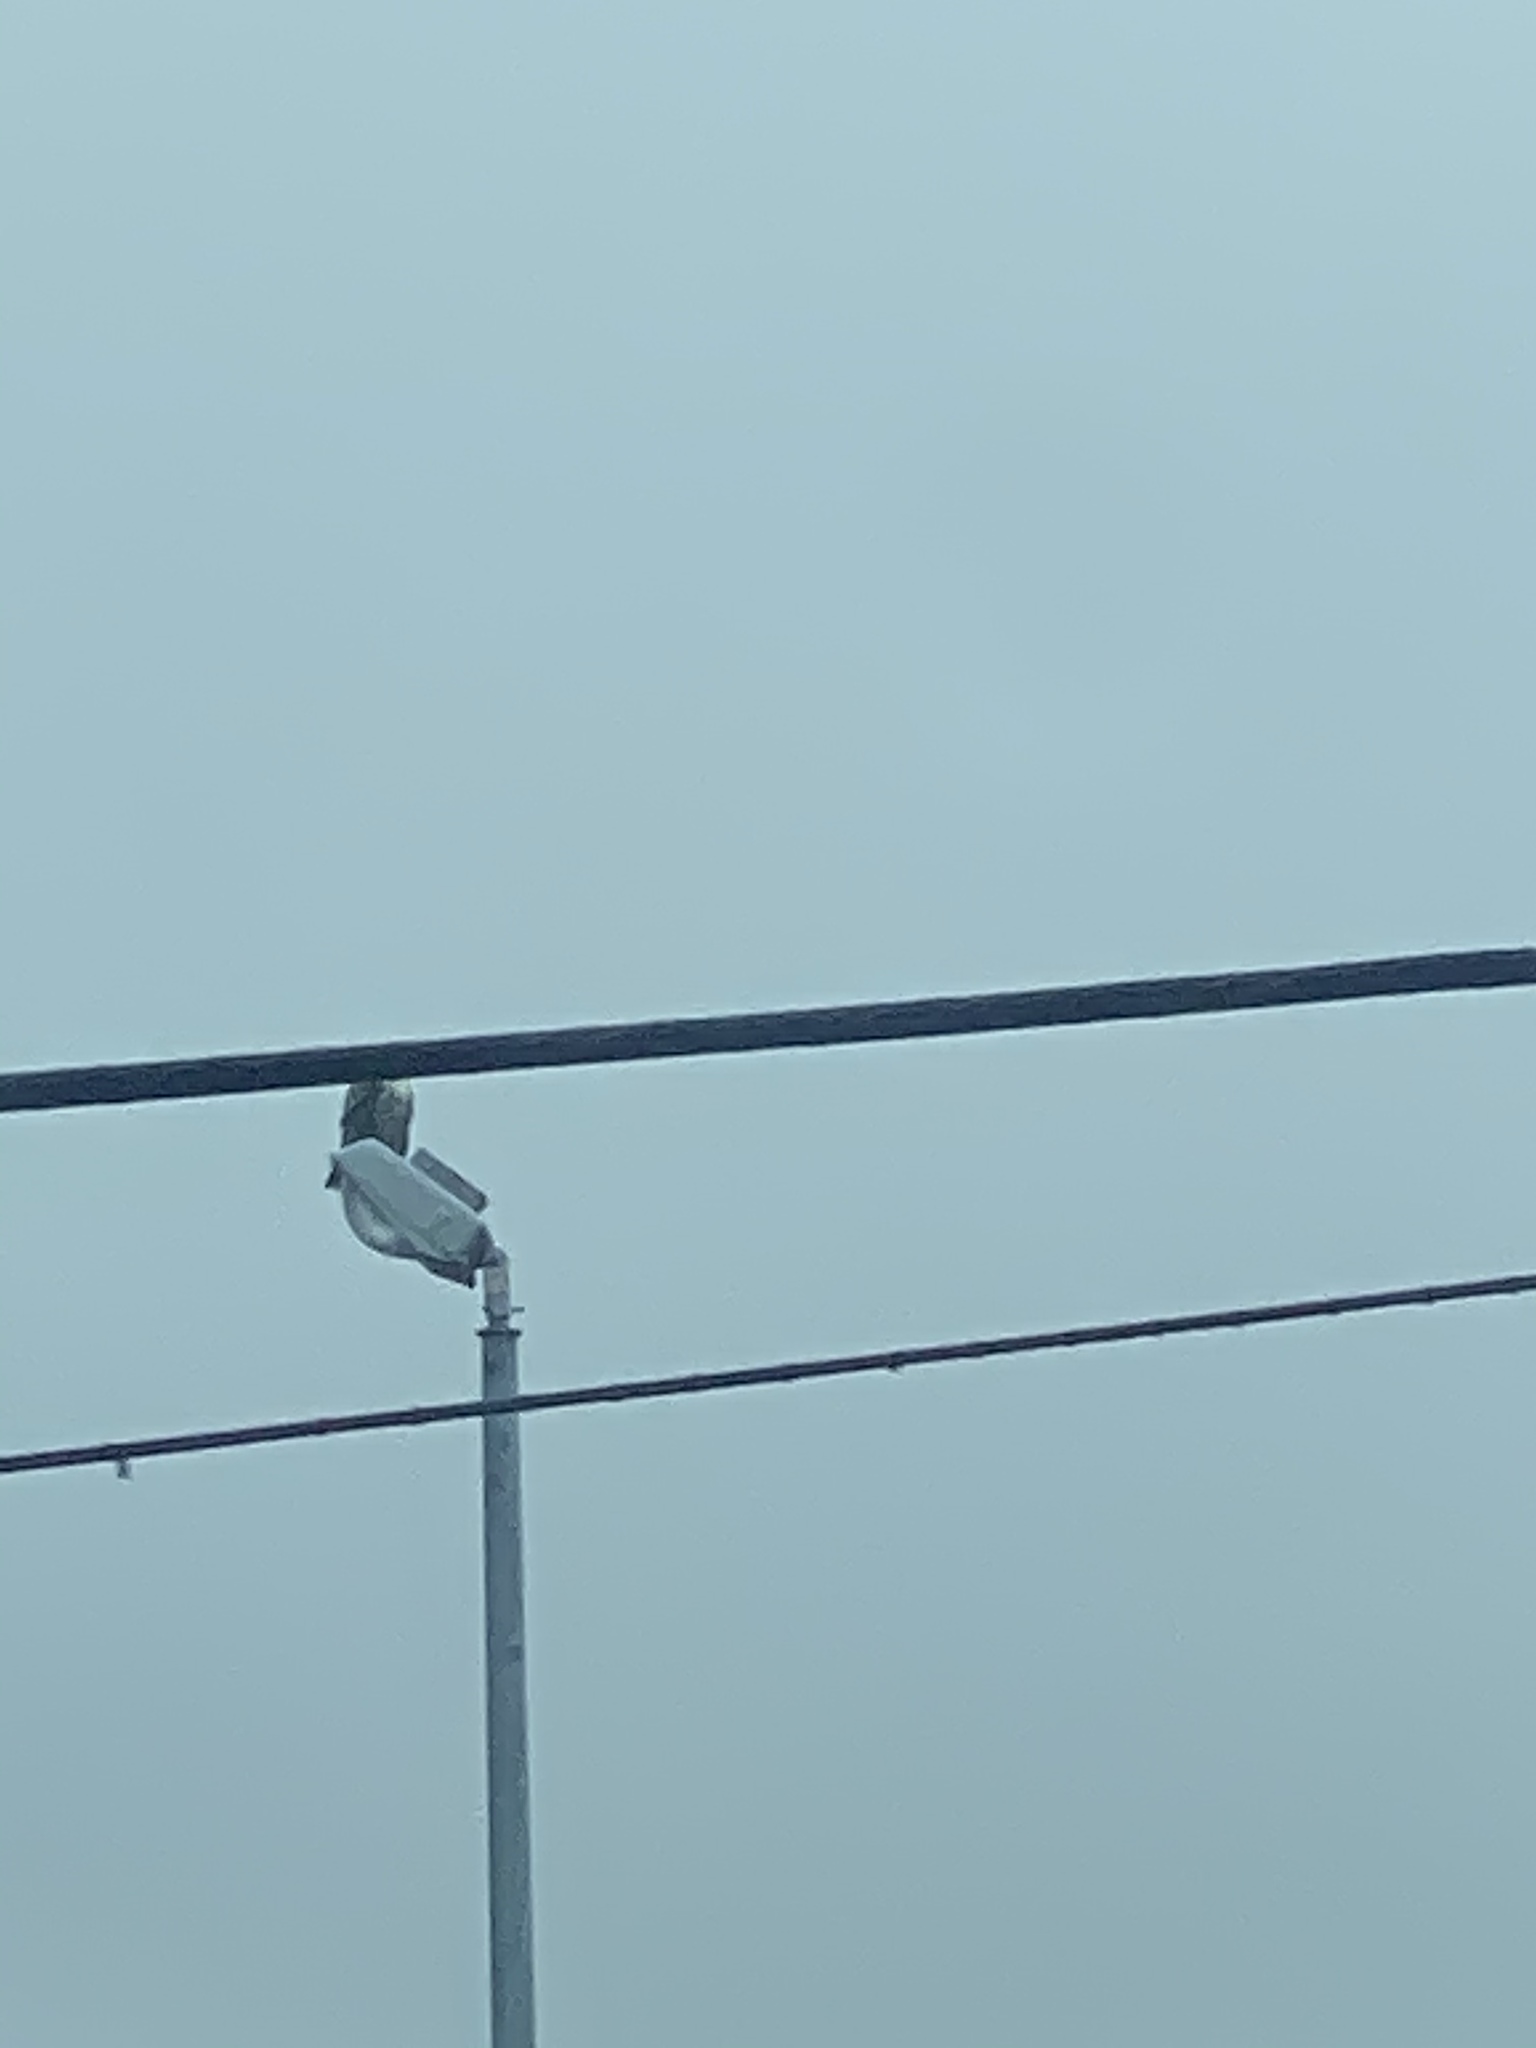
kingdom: Animalia
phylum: Chordata
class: Aves
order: Accipitriformes
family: Accipitridae
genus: Buteo
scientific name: Buteo jamaicensis
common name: Red-tailed hawk
